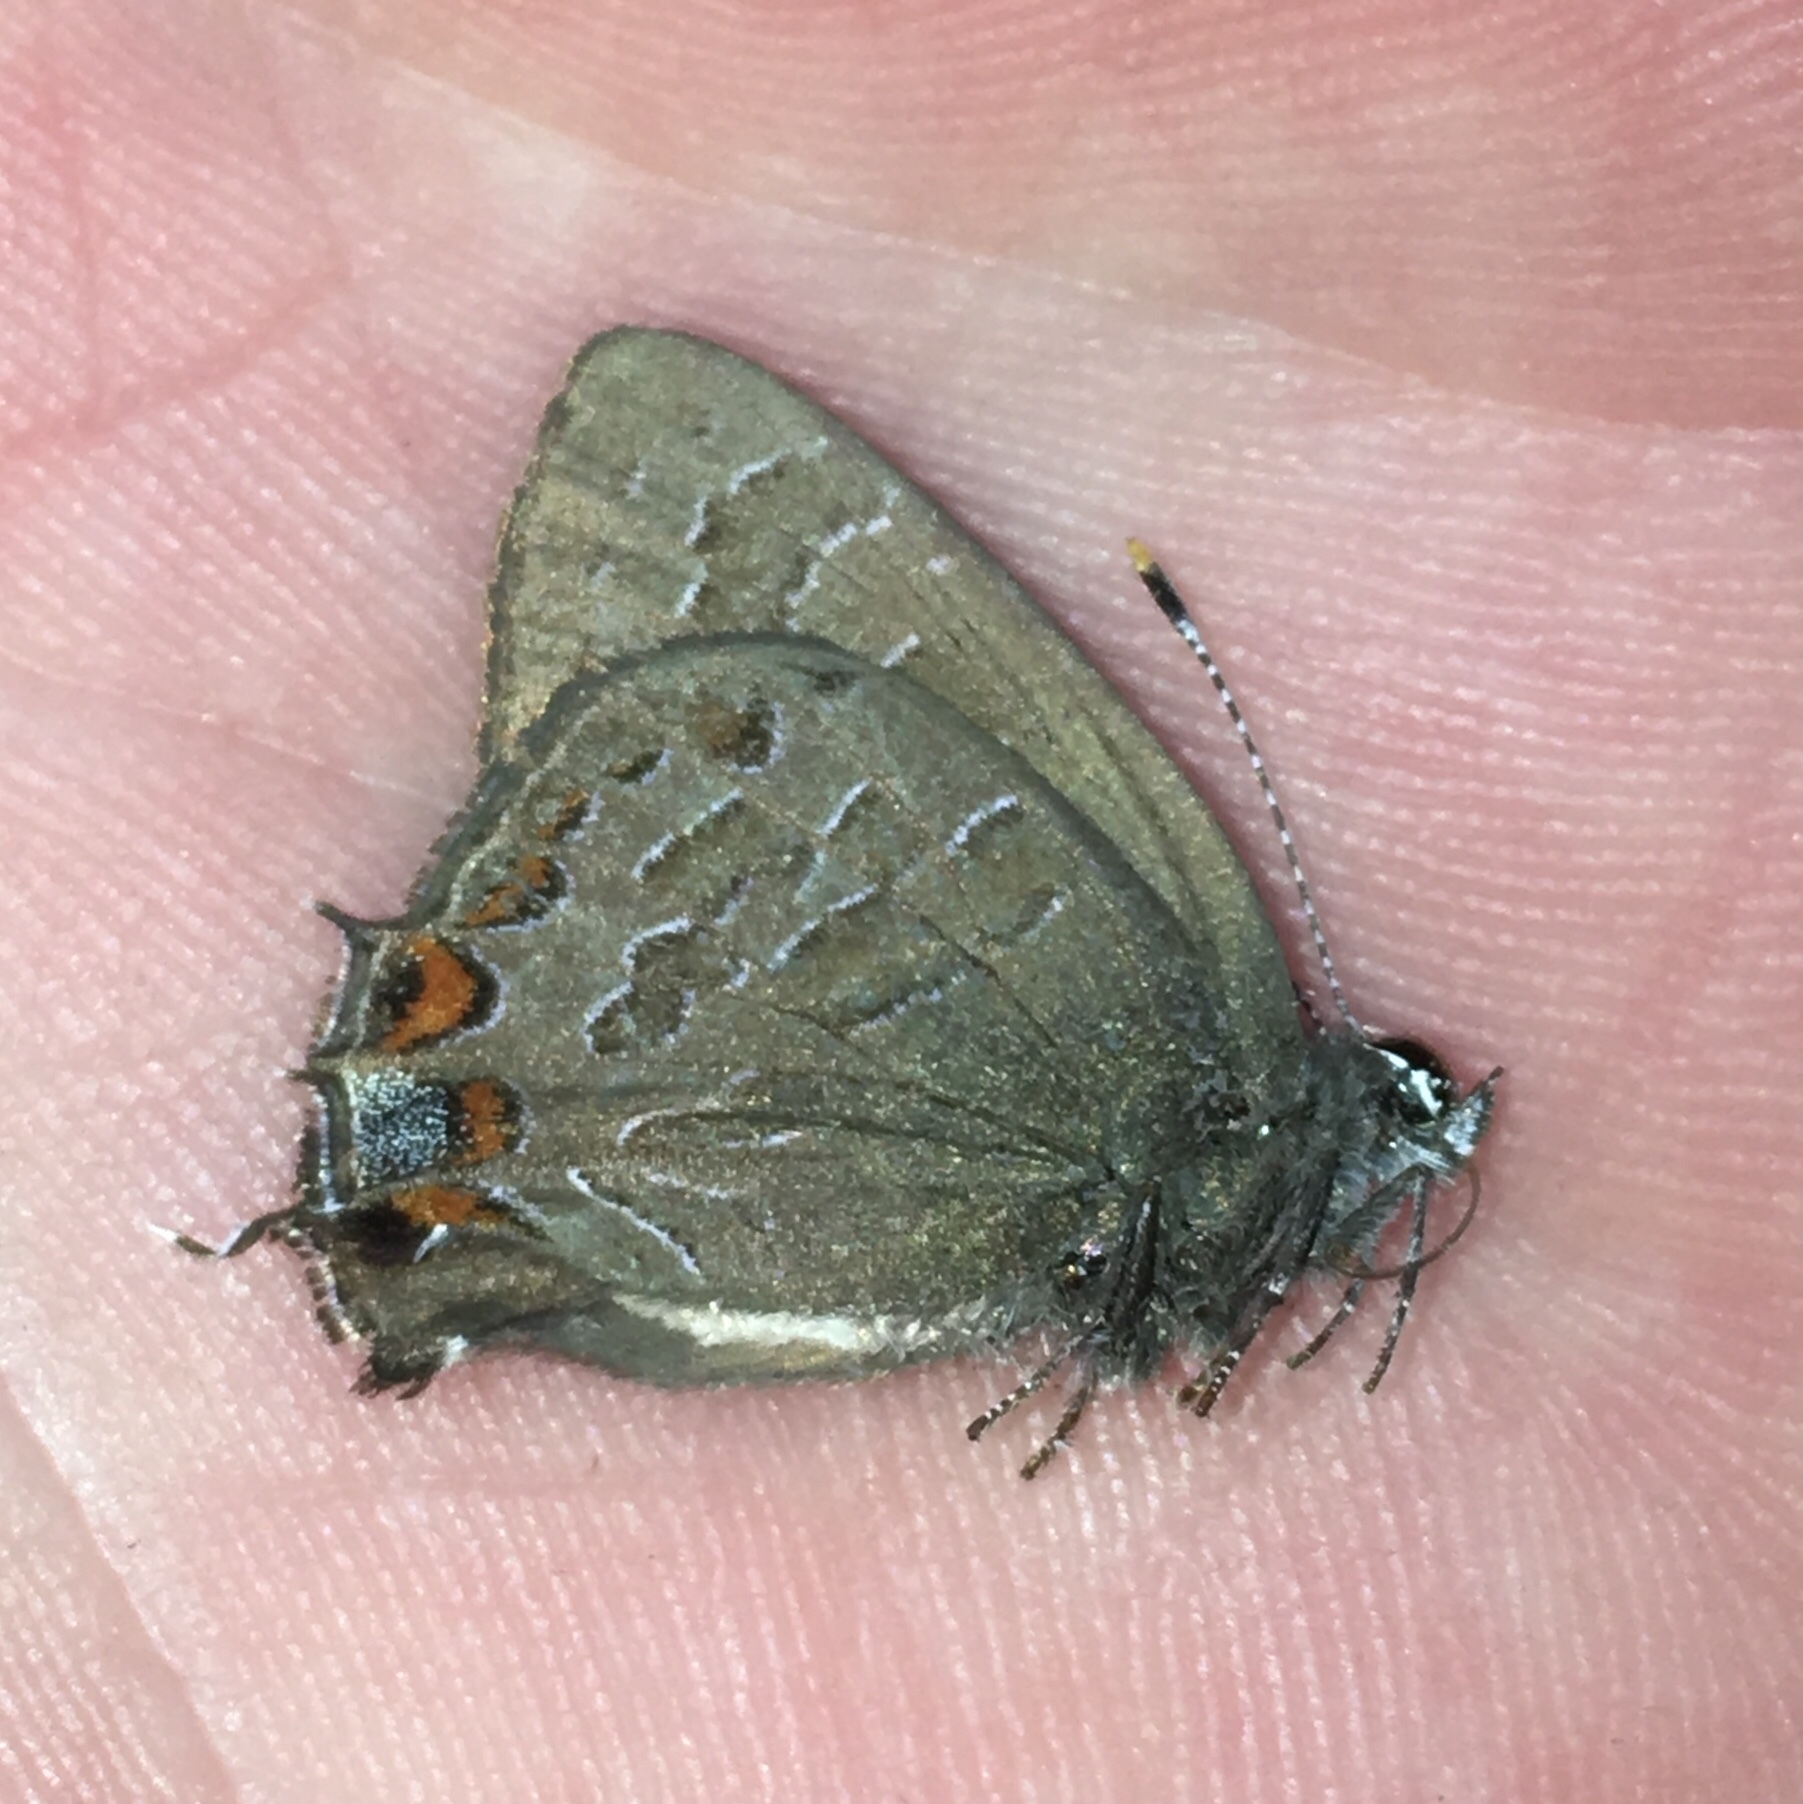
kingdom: Animalia
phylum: Arthropoda
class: Insecta
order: Lepidoptera
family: Lycaenidae
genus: Satyrium
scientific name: Satyrium liparops
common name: Striped hairstreak
